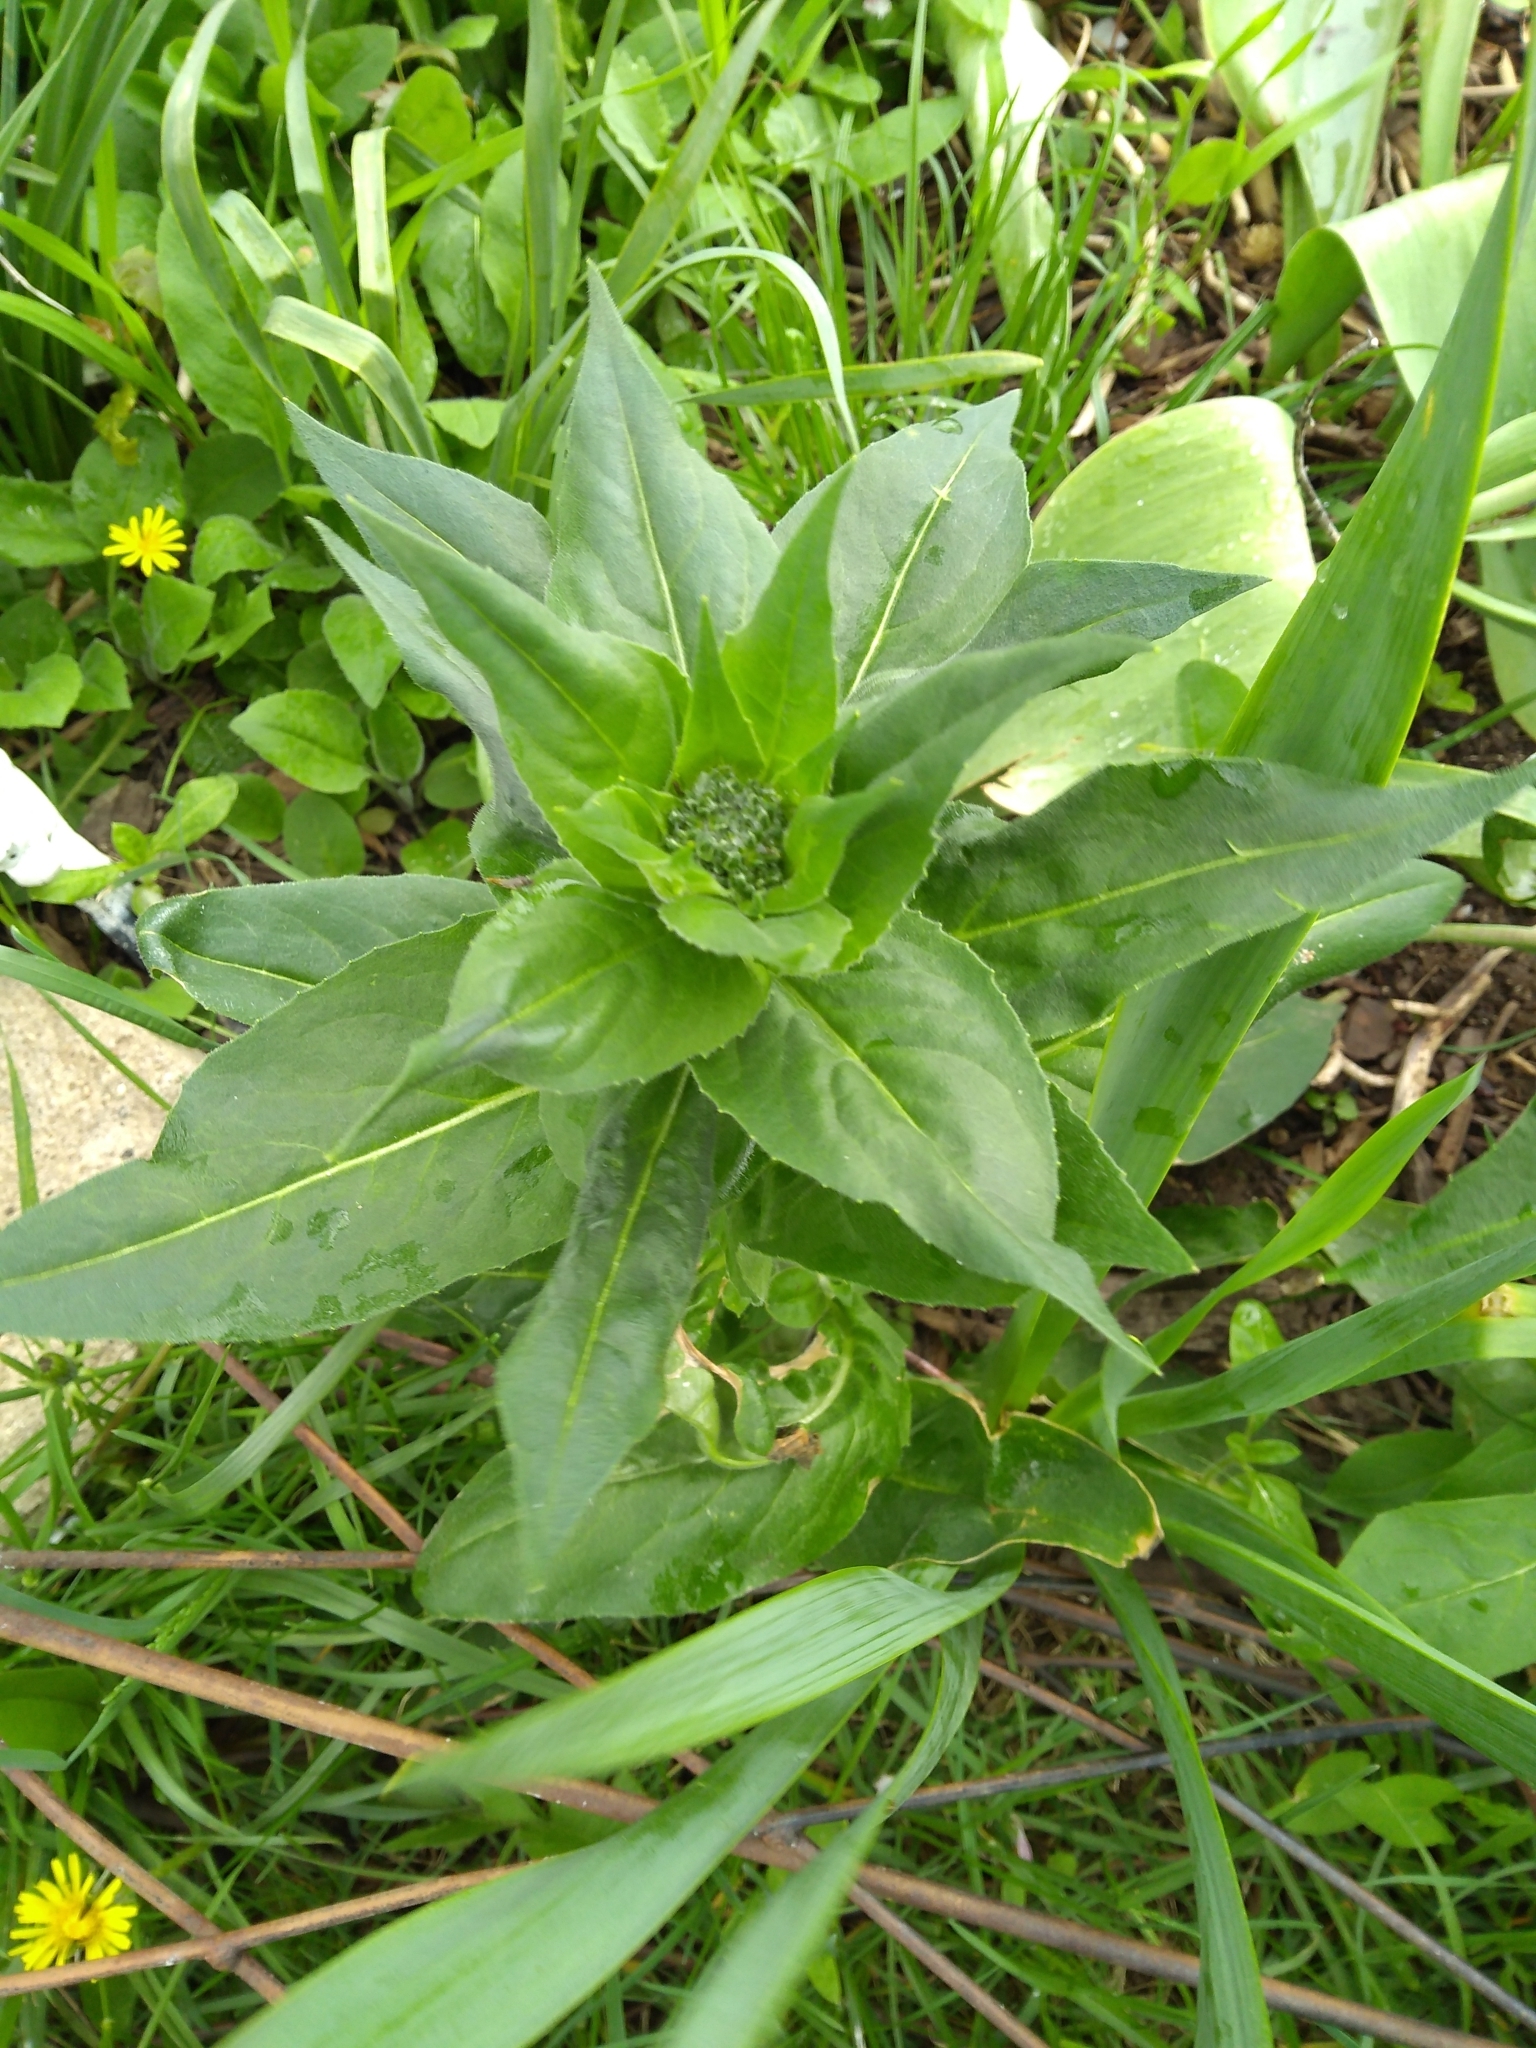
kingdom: Plantae
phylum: Tracheophyta
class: Magnoliopsida
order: Brassicales
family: Brassicaceae
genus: Hesperis
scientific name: Hesperis matronalis
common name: Dame's-violet
